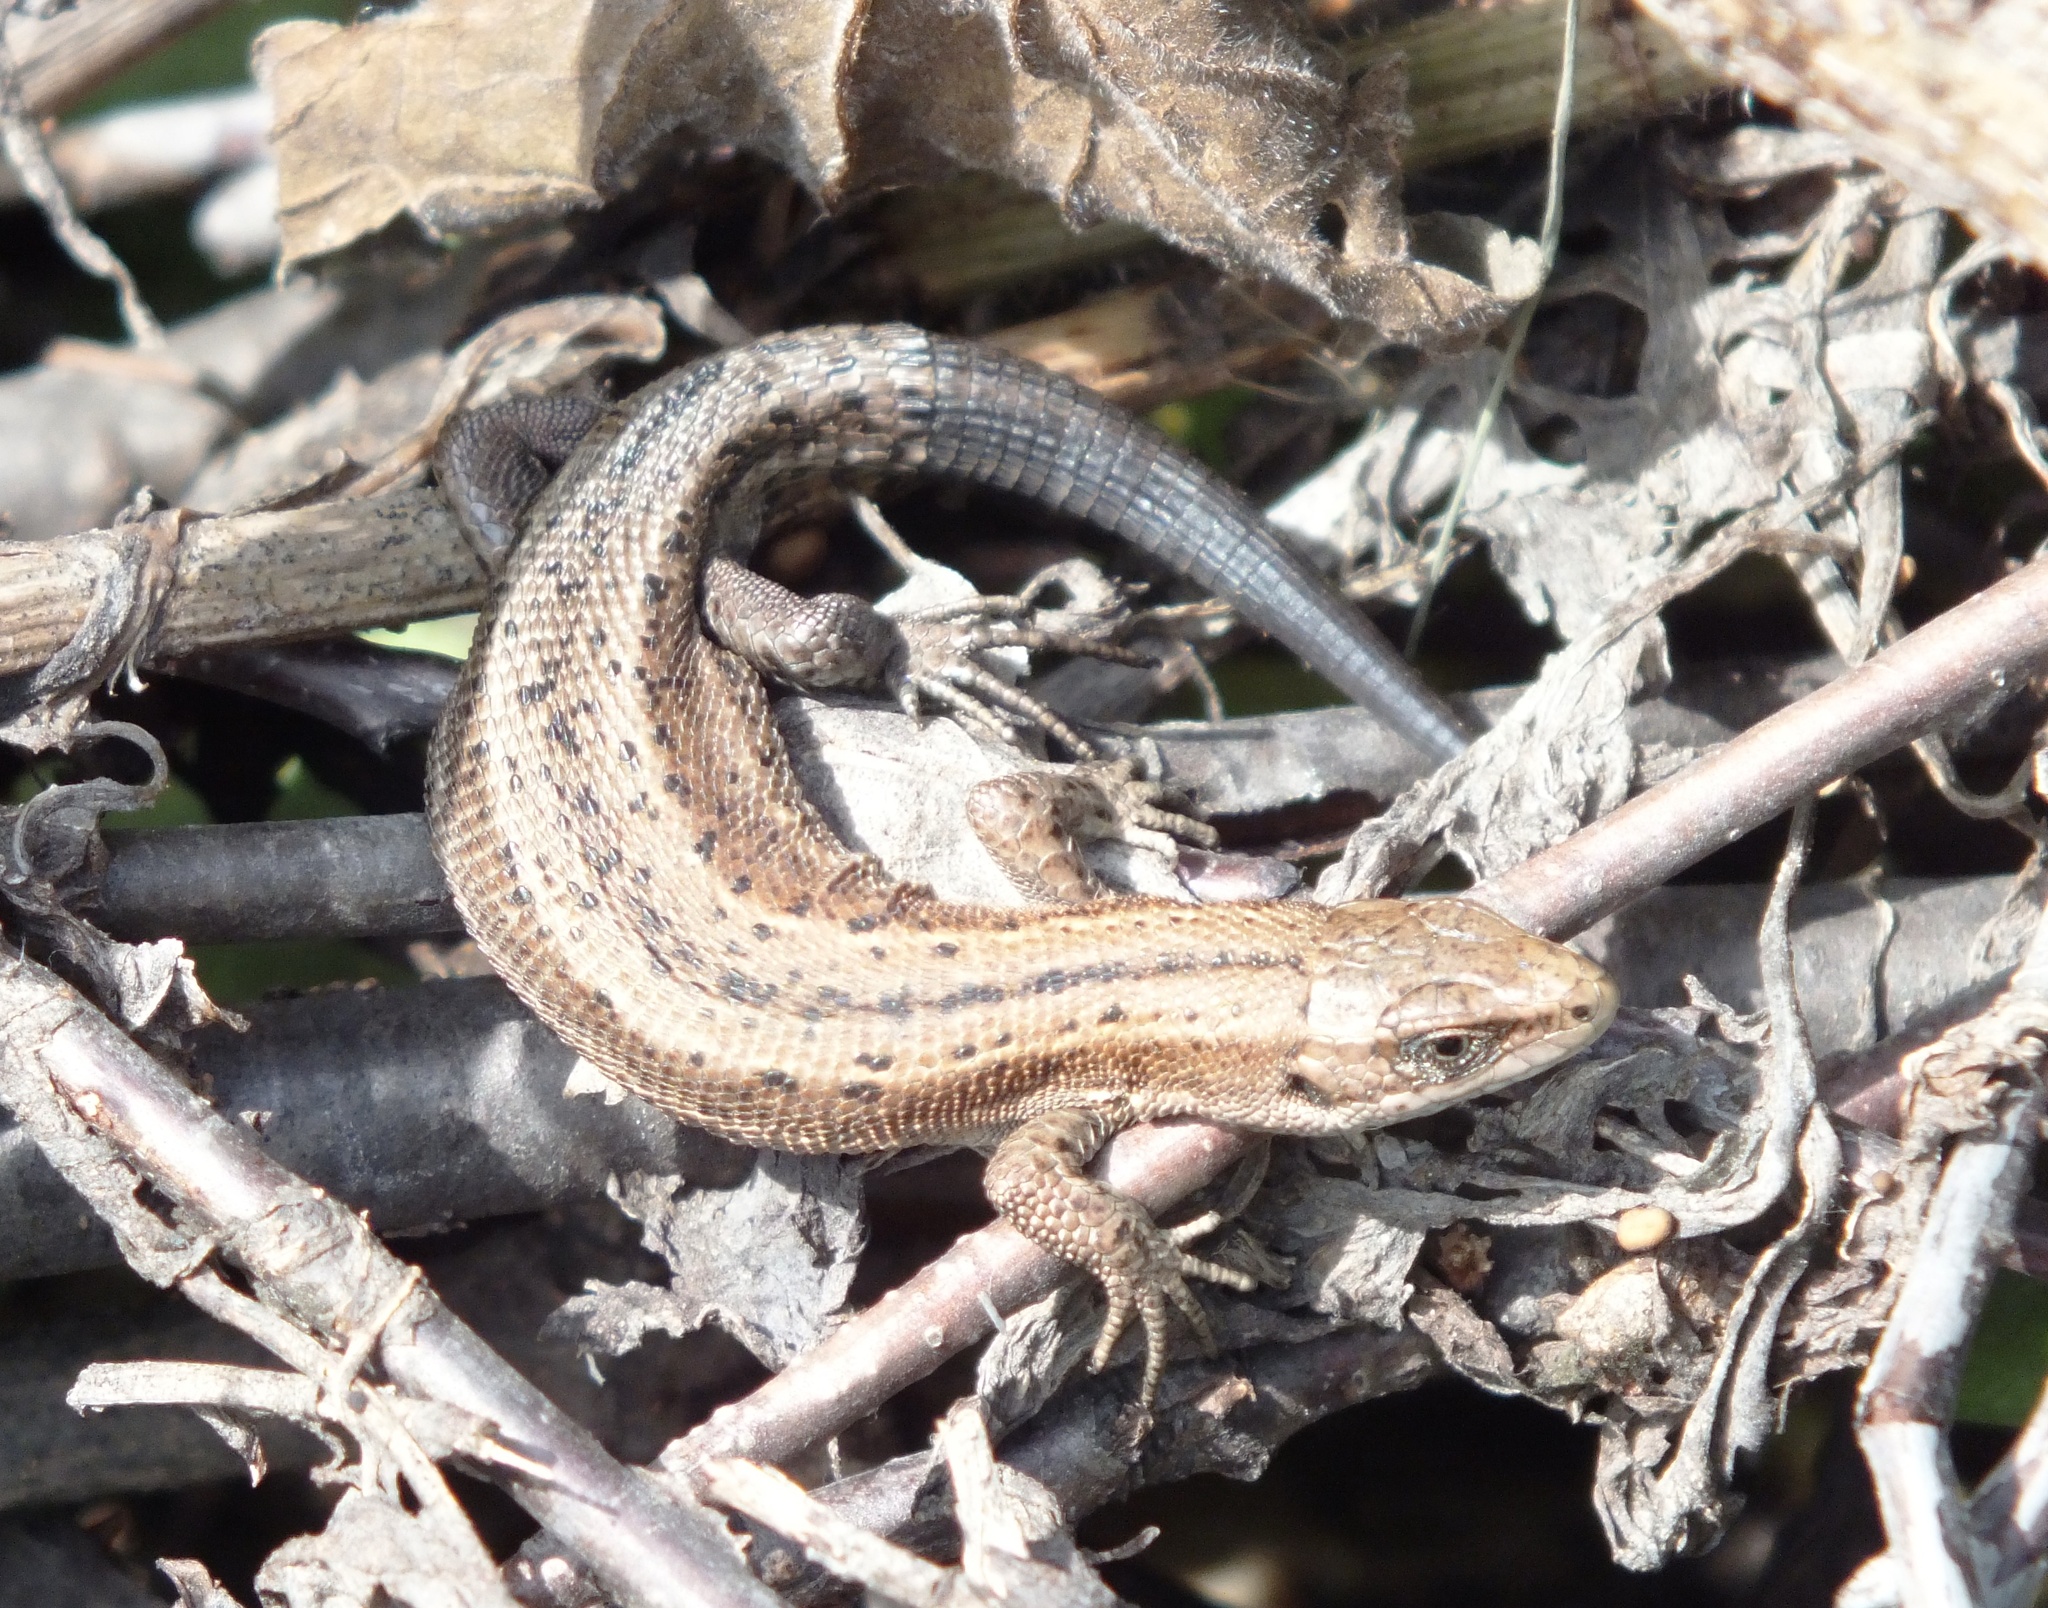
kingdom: Animalia
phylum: Chordata
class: Squamata
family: Lacertidae
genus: Zootoca
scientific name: Zootoca vivipara
